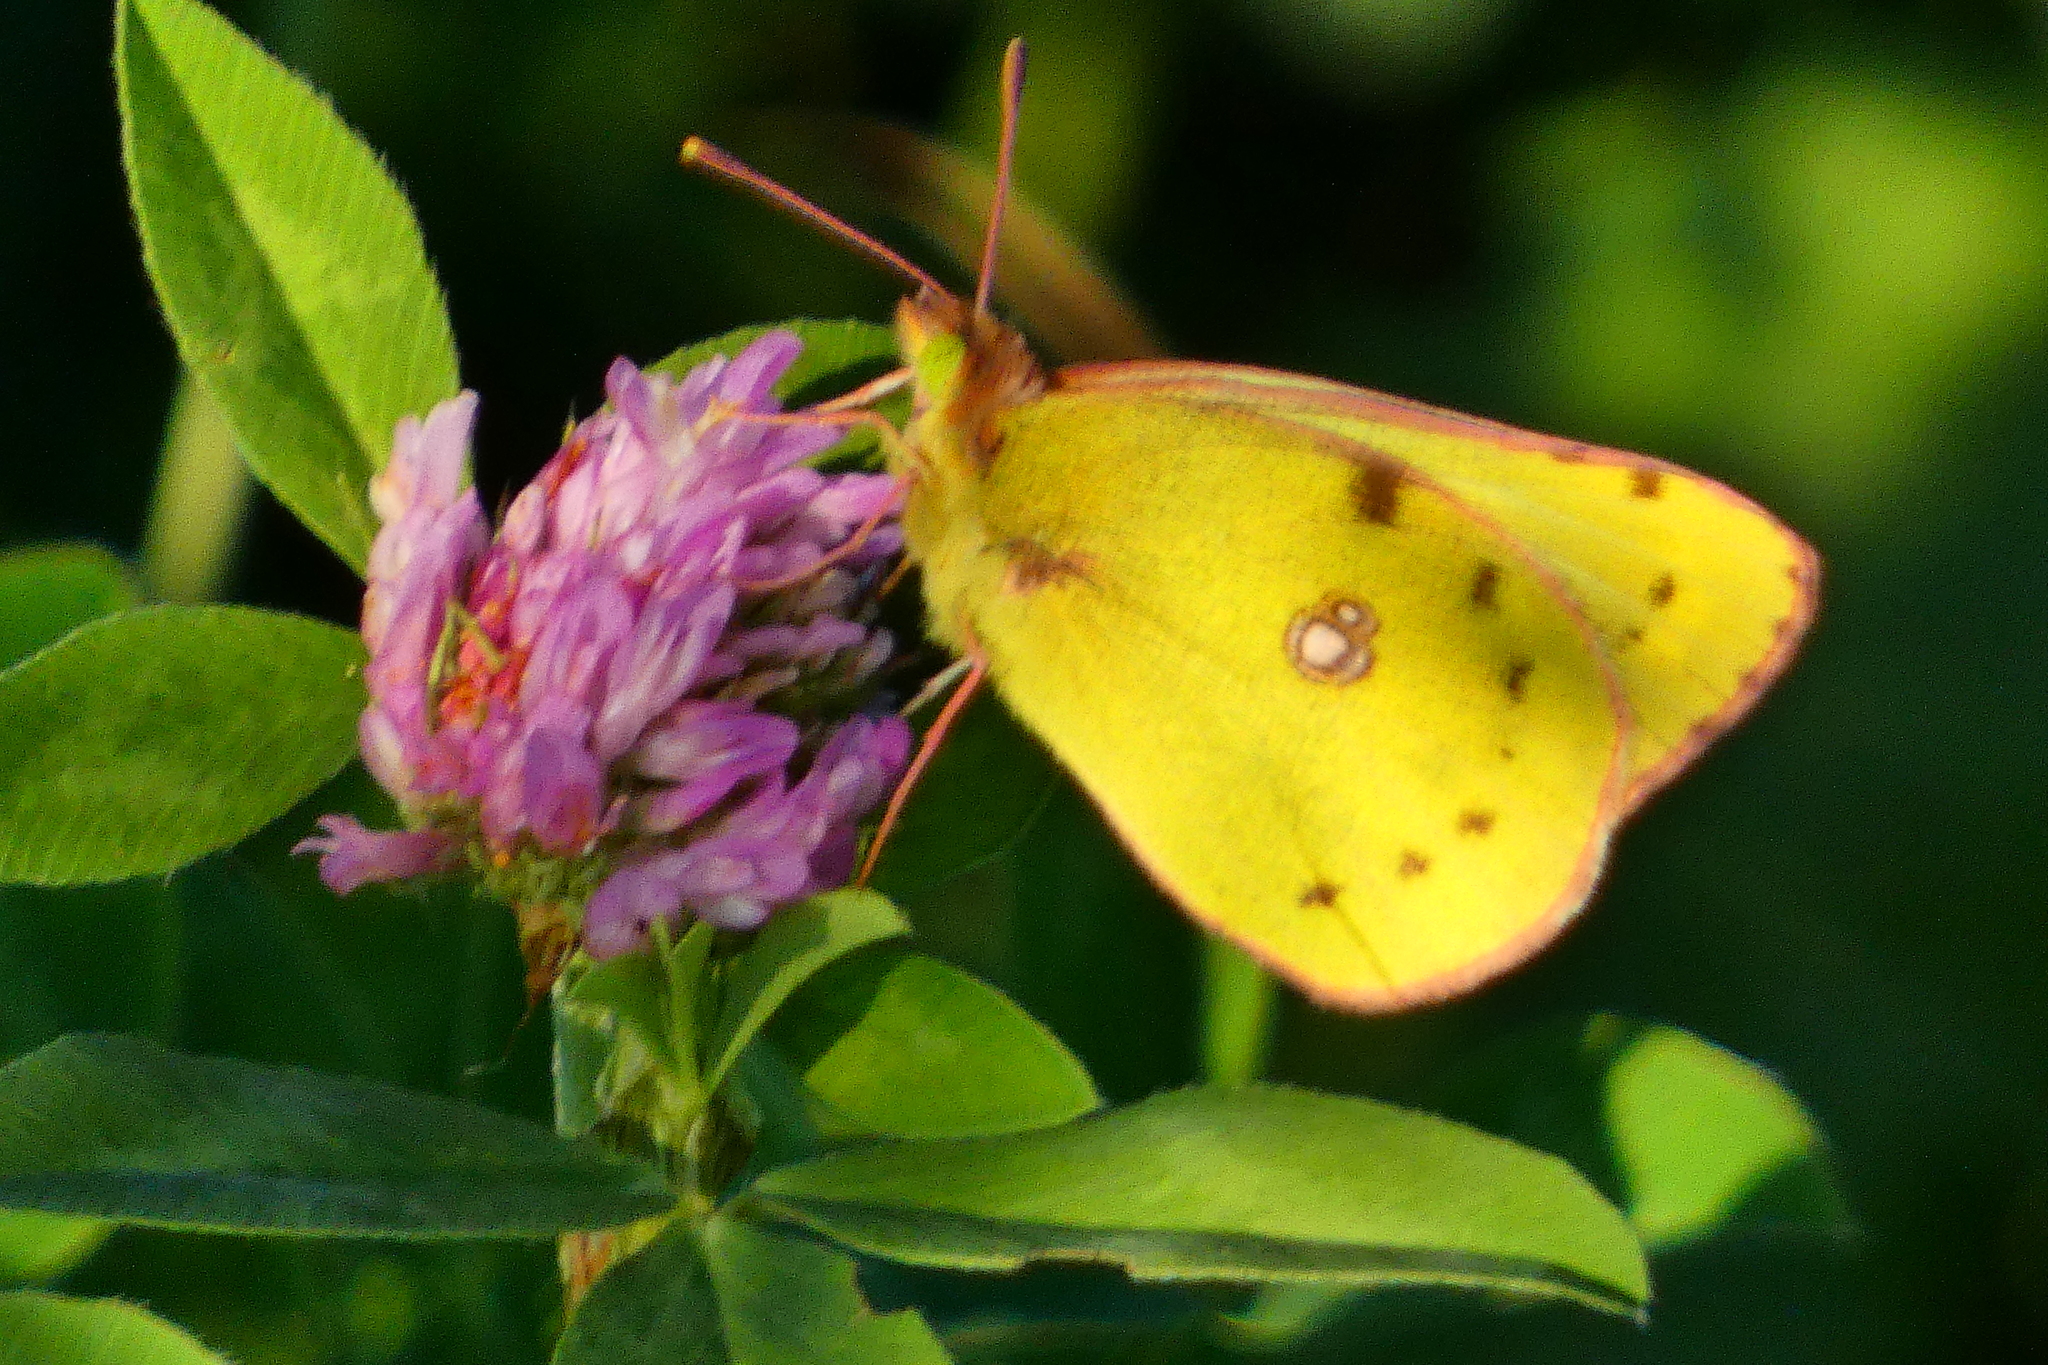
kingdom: Animalia
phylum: Arthropoda
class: Insecta
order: Lepidoptera
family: Pieridae
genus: Colias
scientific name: Colias hyale
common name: Pale clouded yellow
